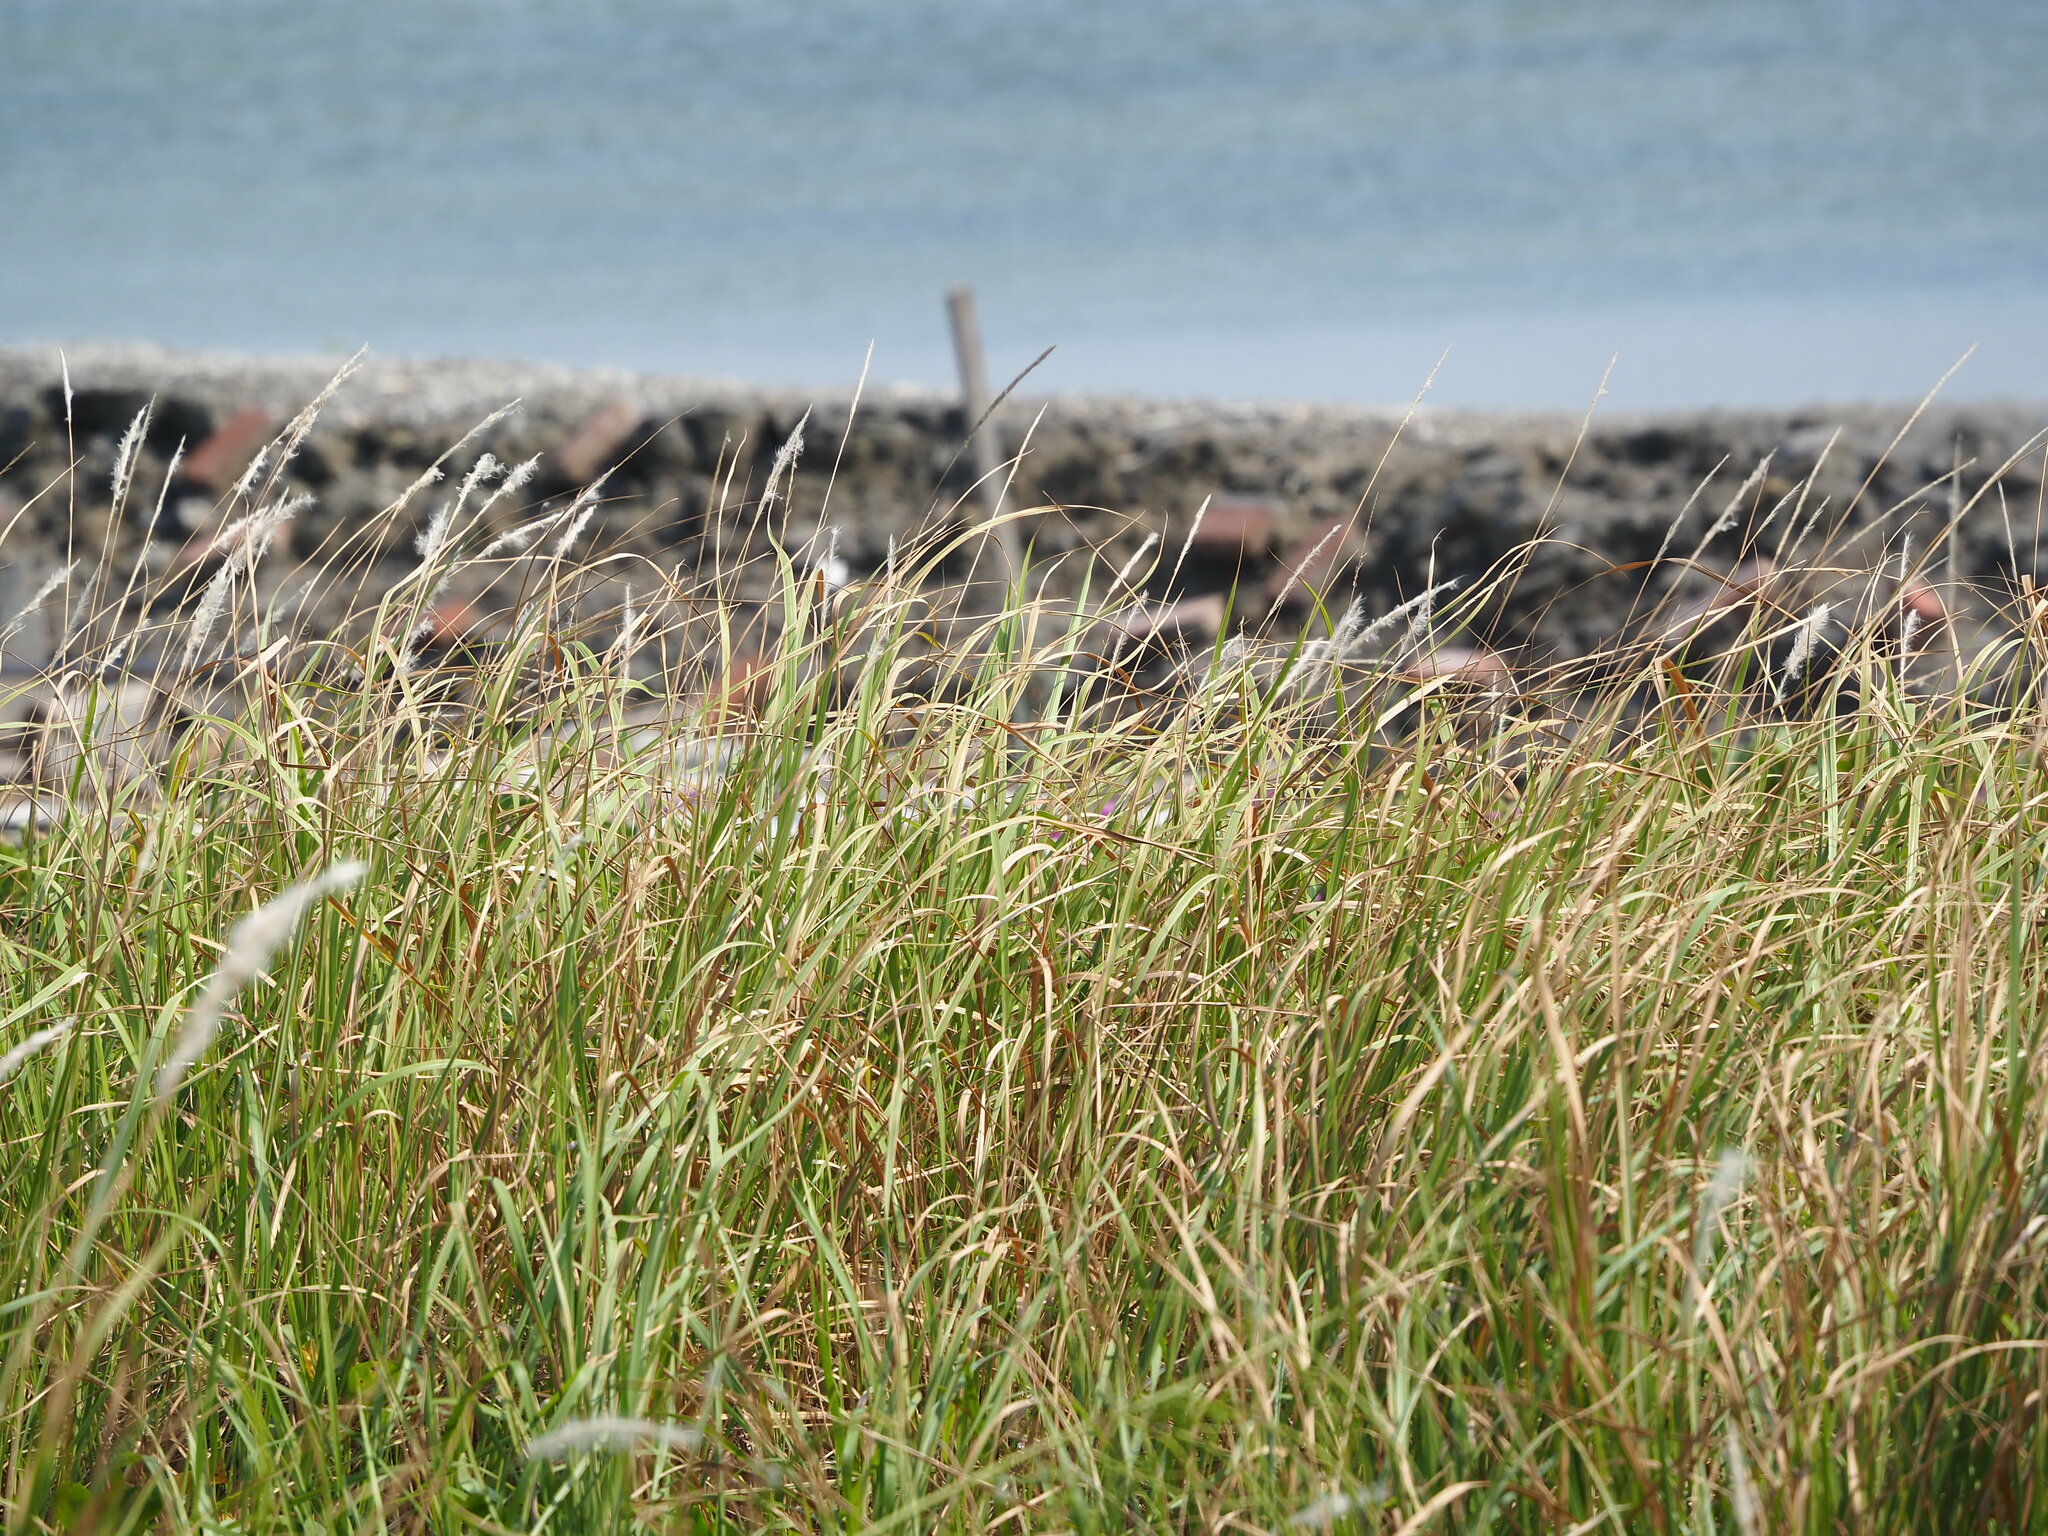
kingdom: Plantae
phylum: Tracheophyta
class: Liliopsida
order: Poales
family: Poaceae
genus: Imperata
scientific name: Imperata cylindrica
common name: Cogongrass
